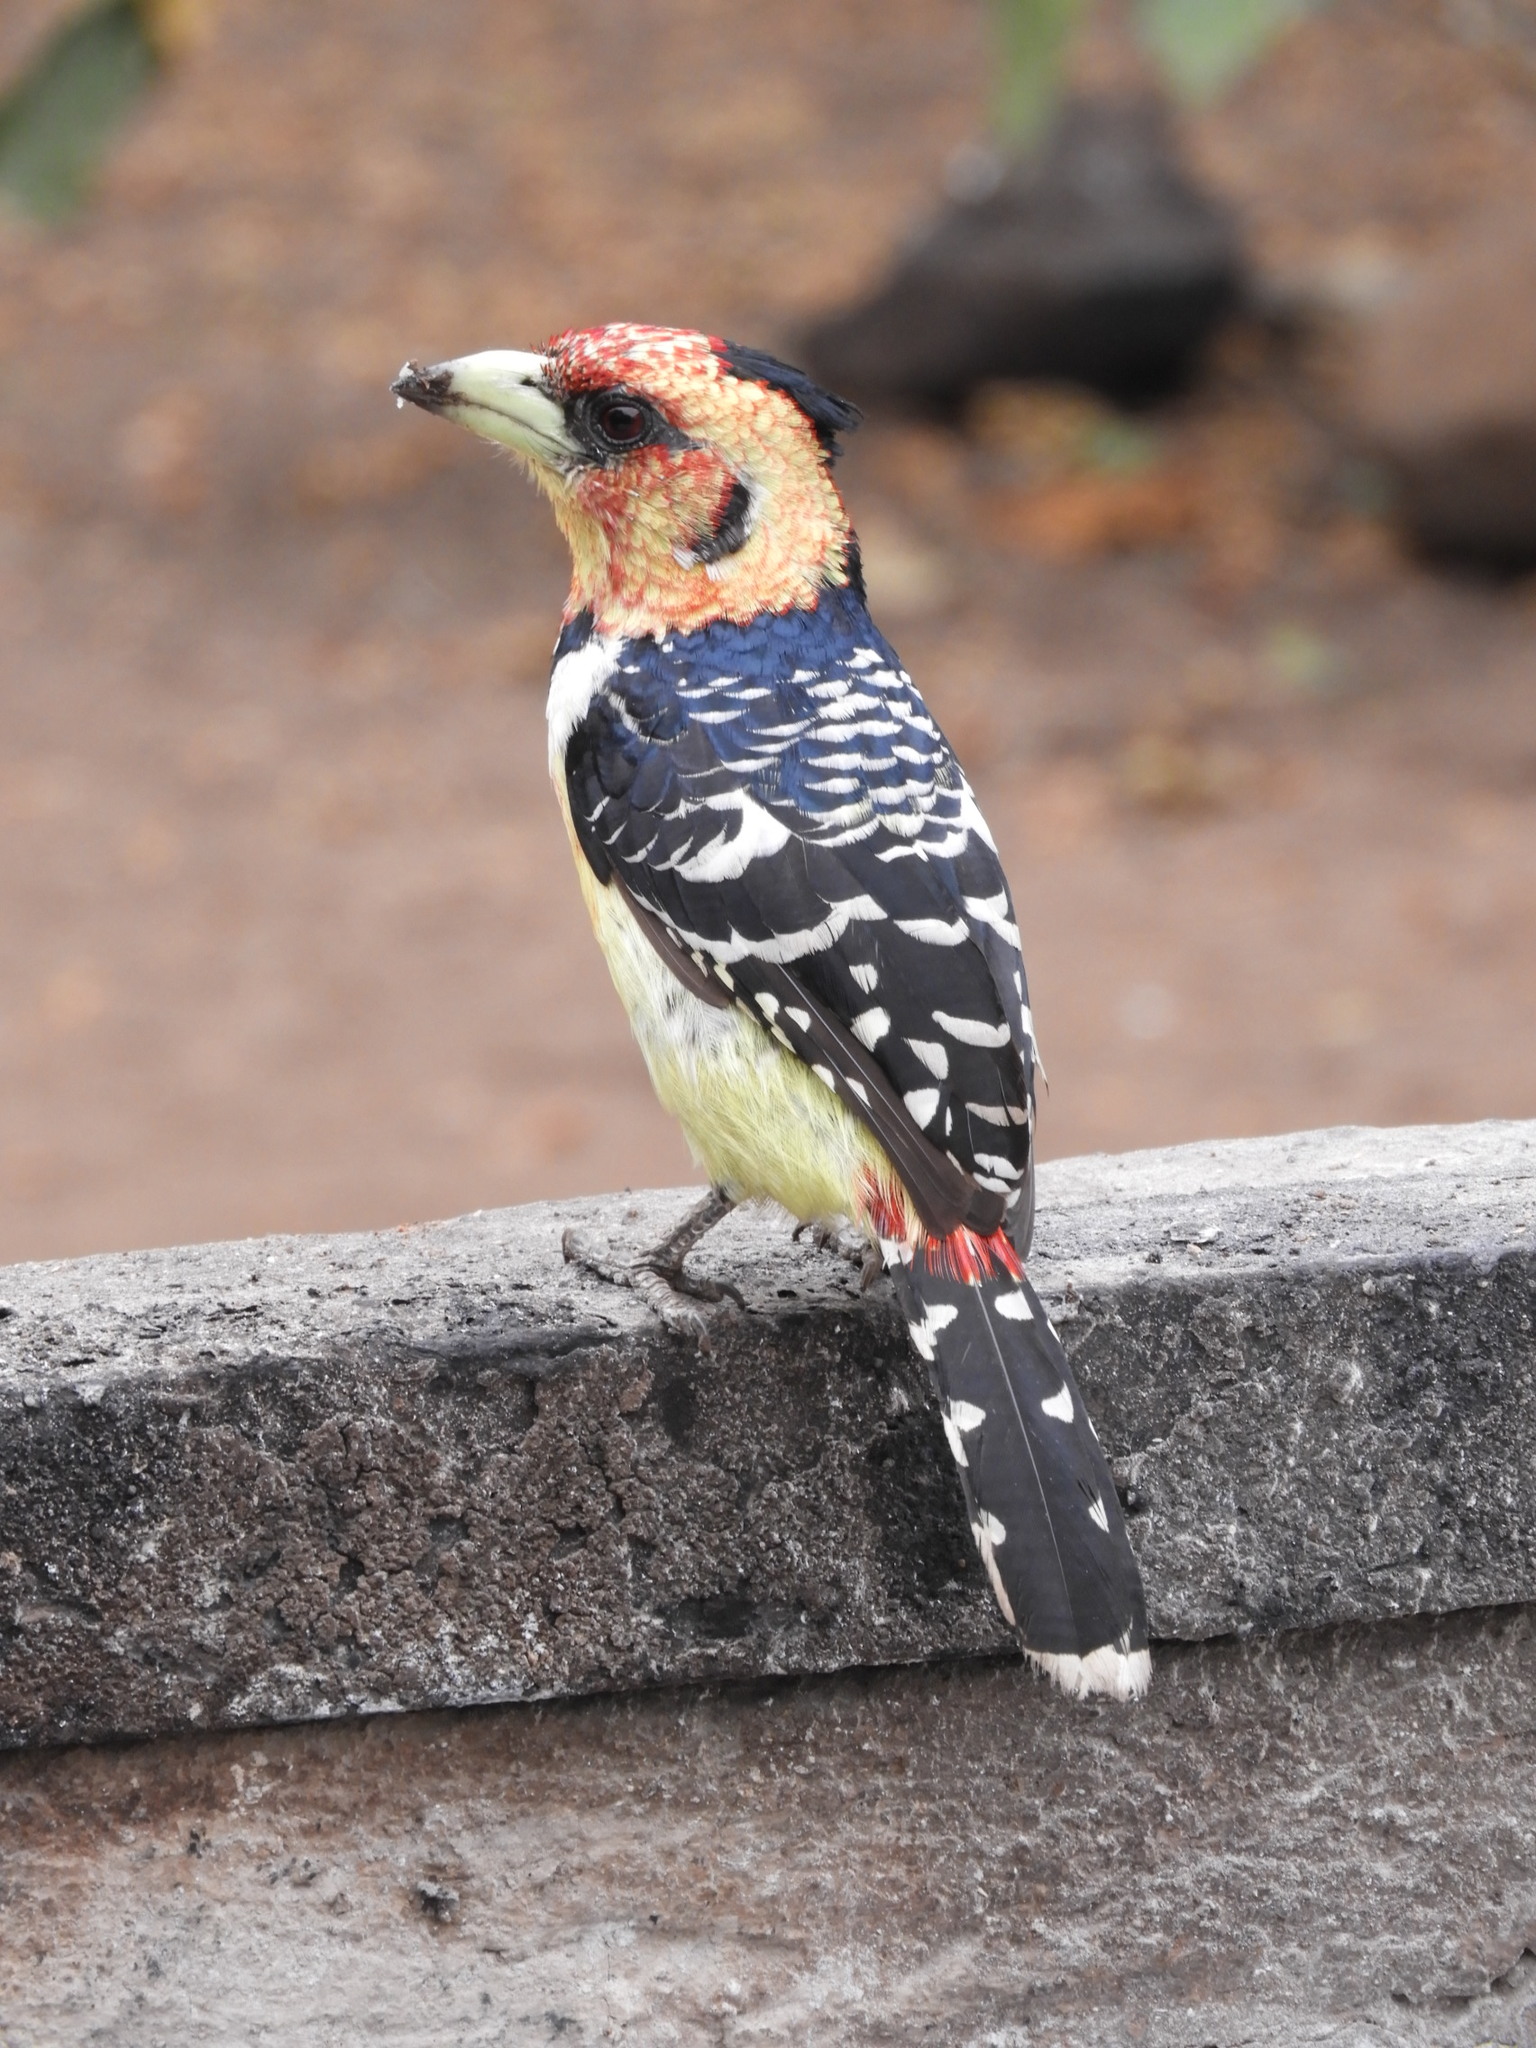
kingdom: Animalia
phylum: Chordata
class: Aves
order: Piciformes
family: Lybiidae
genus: Trachyphonus
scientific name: Trachyphonus vaillantii
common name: Crested barbet
